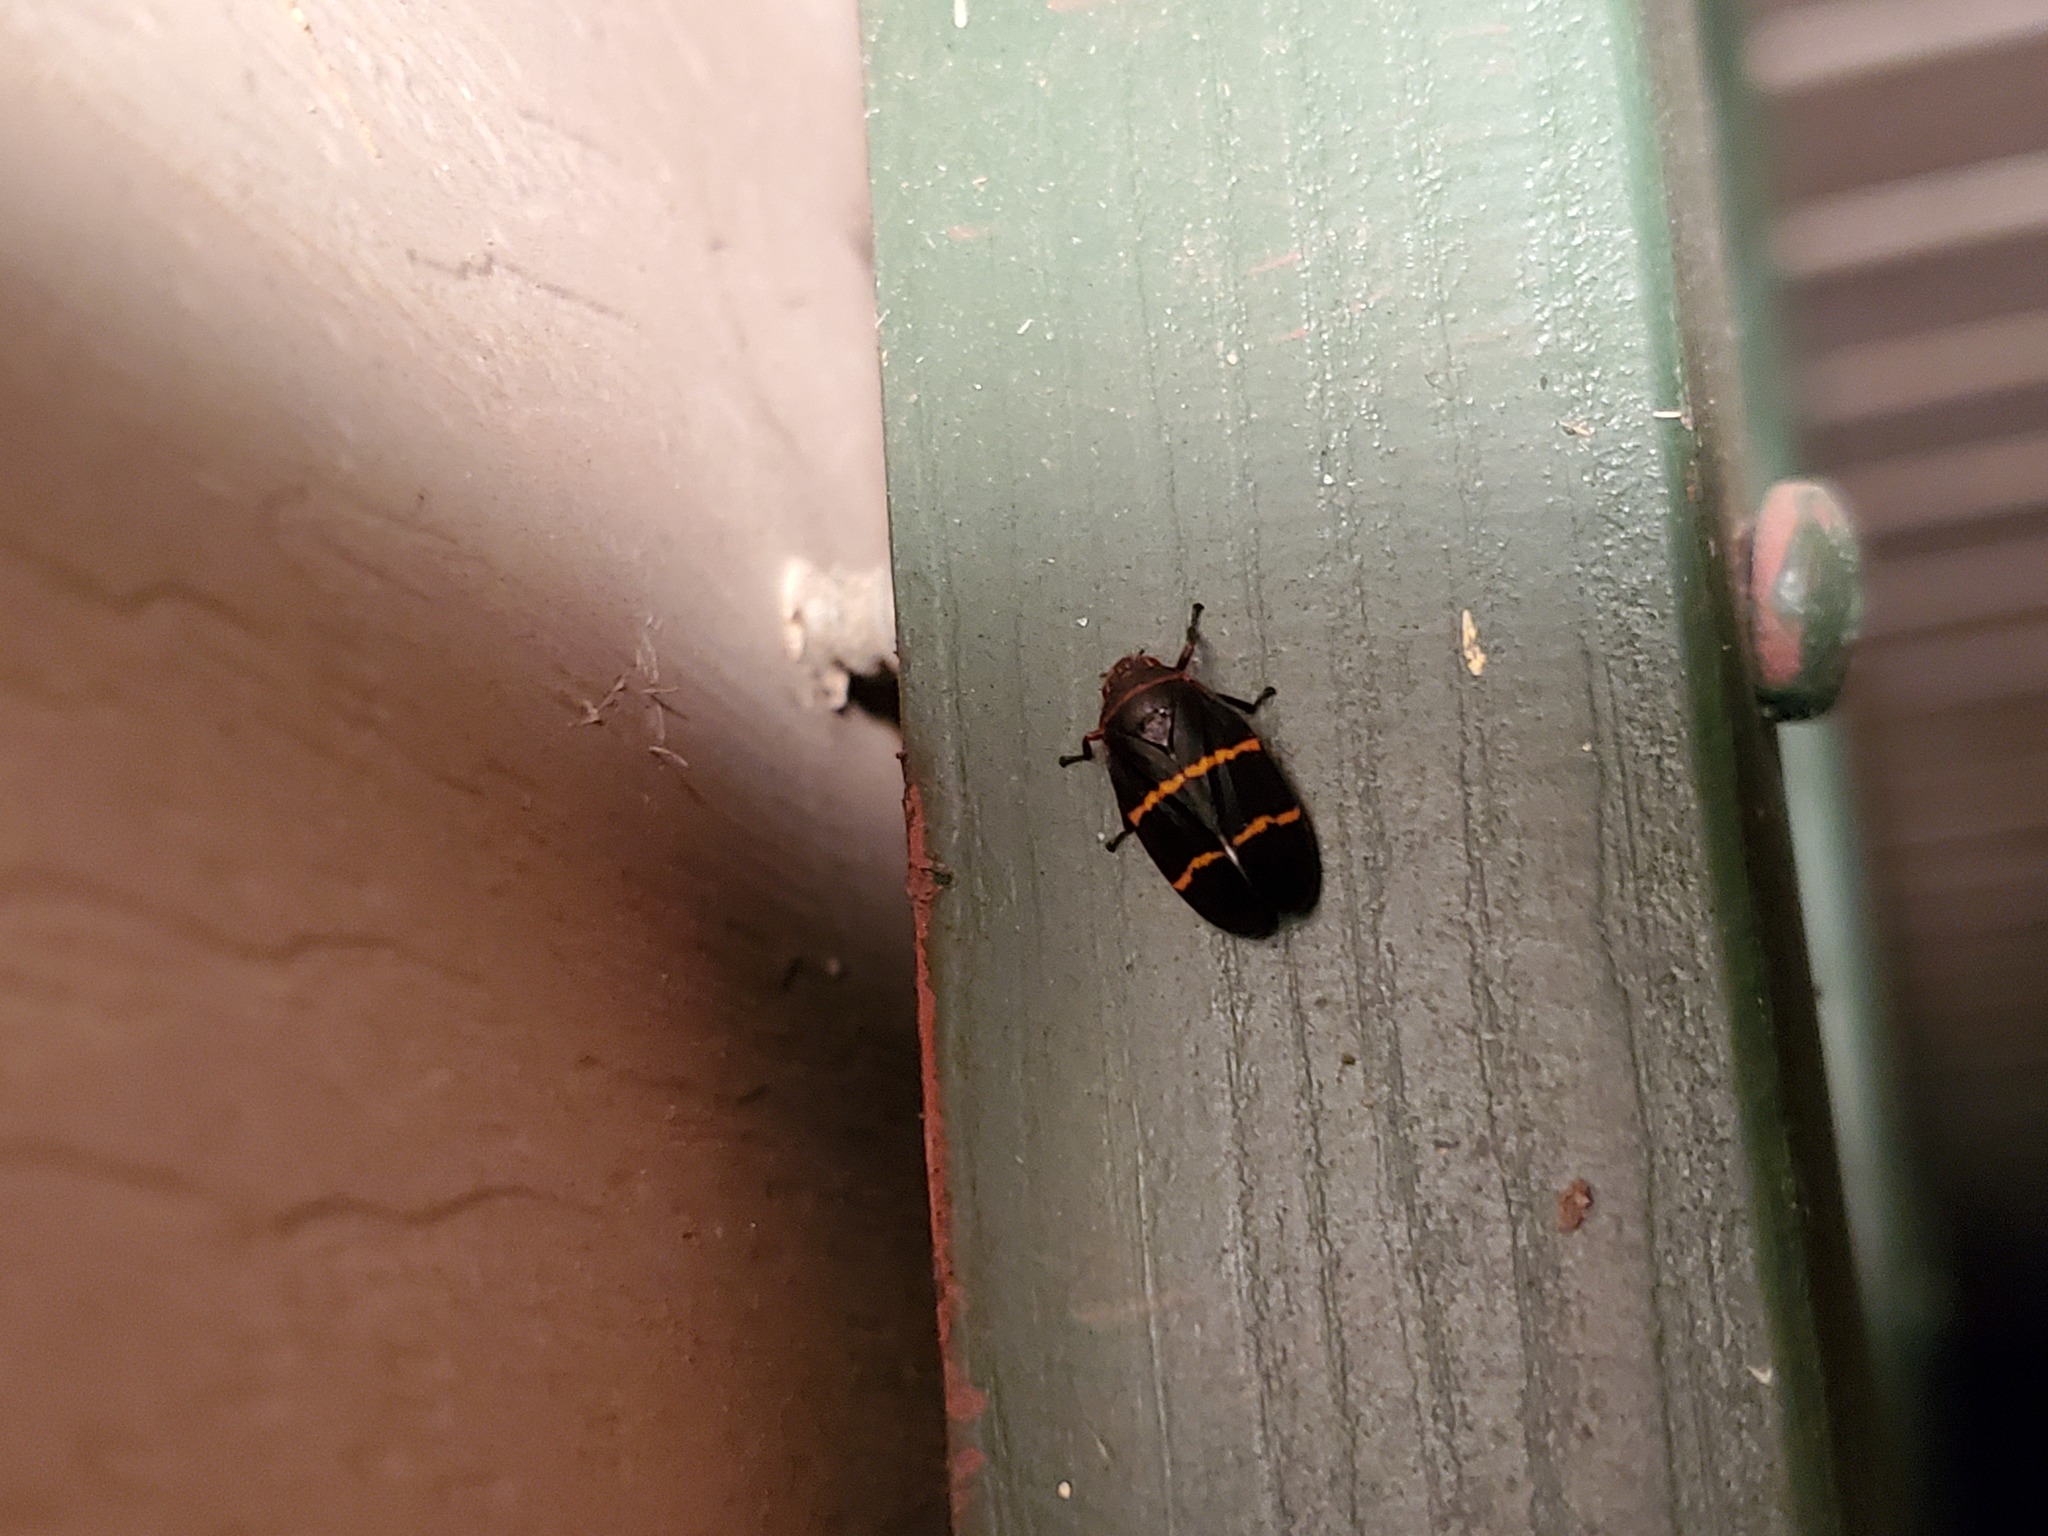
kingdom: Animalia
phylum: Arthropoda
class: Insecta
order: Hemiptera
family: Cercopidae
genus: Prosapia
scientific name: Prosapia bicincta
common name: Twolined spittlebug
